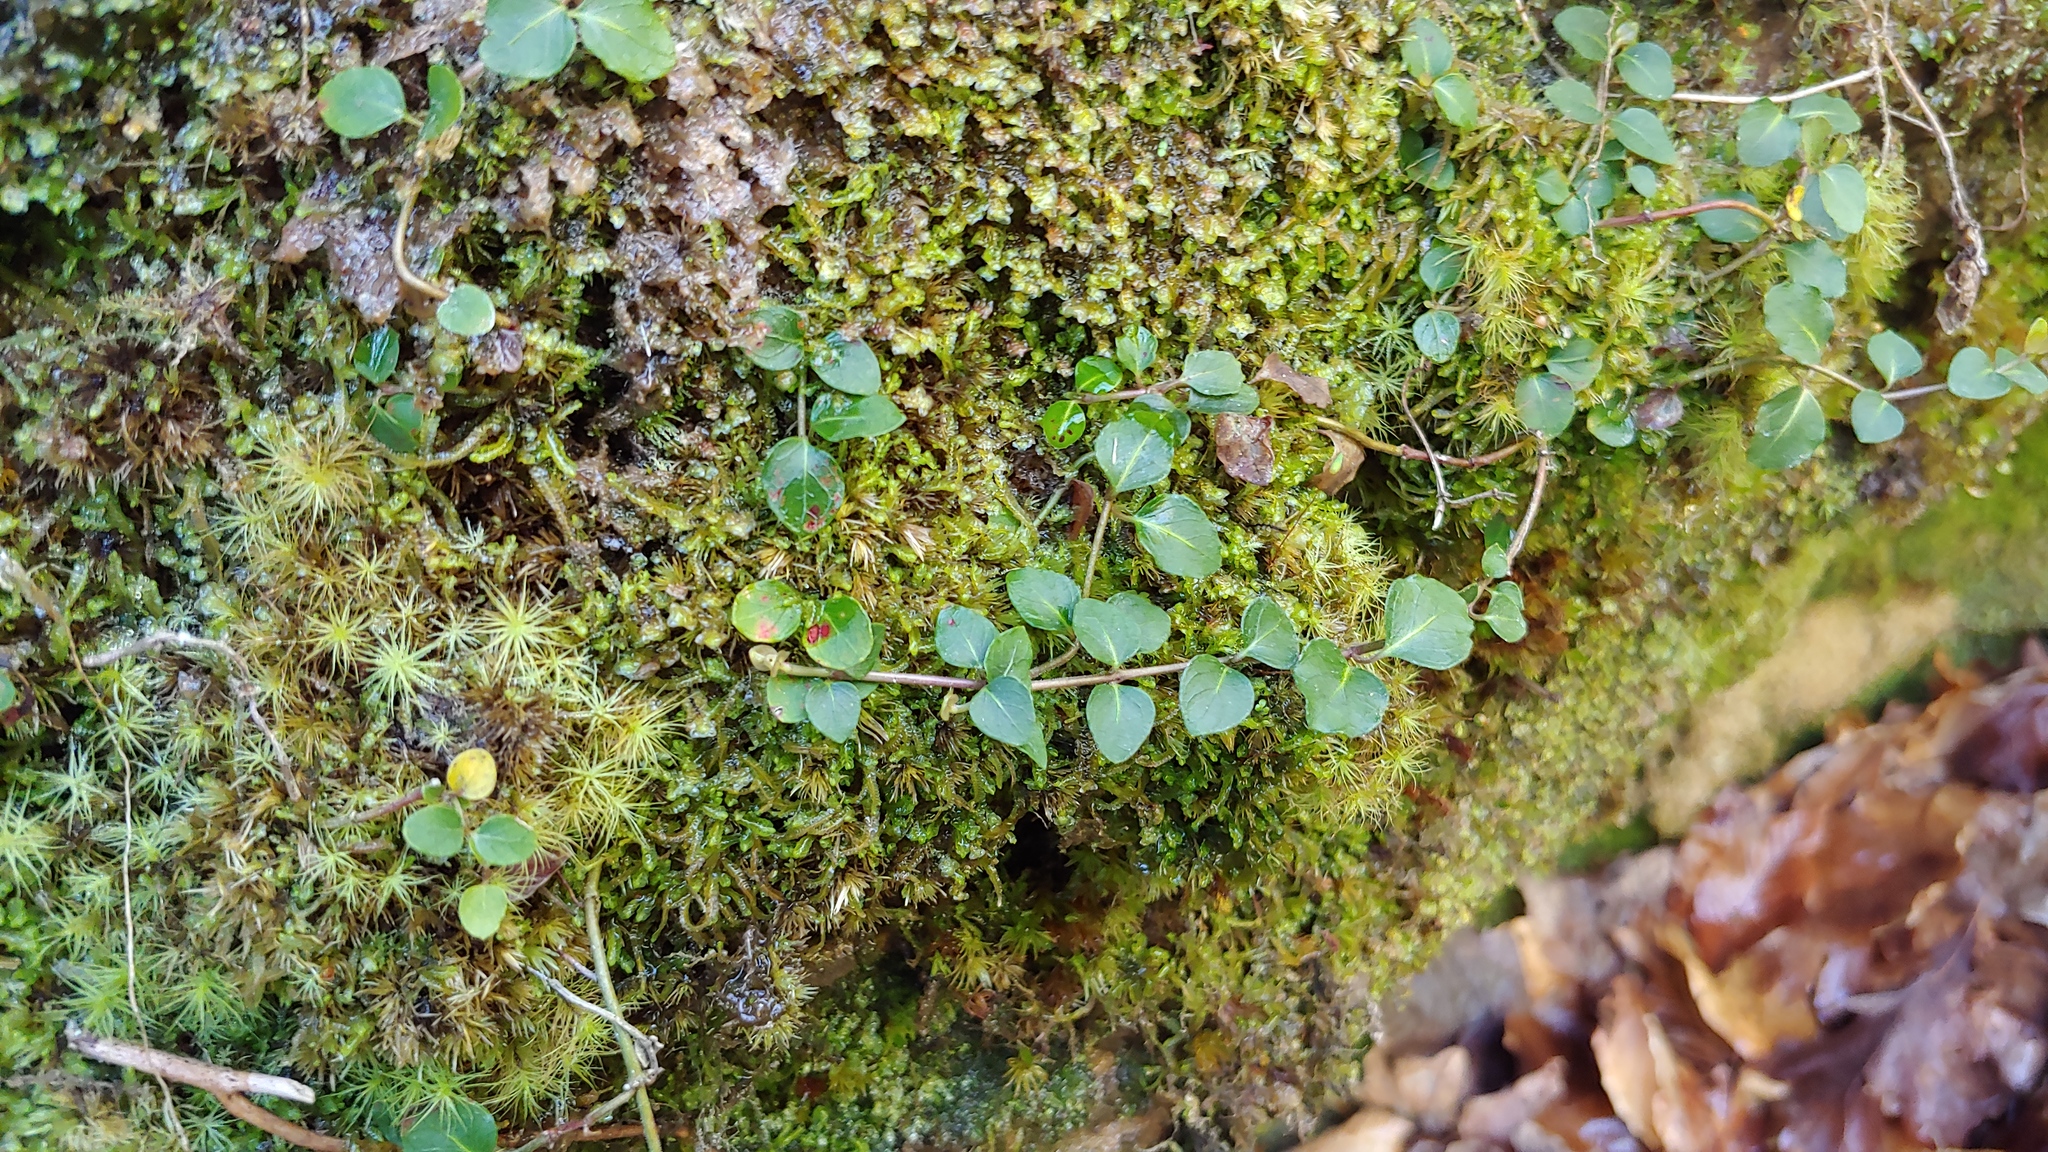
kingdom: Plantae
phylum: Tracheophyta
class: Magnoliopsida
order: Gentianales
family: Rubiaceae
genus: Mitchella
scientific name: Mitchella repens
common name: Partridge-berry
